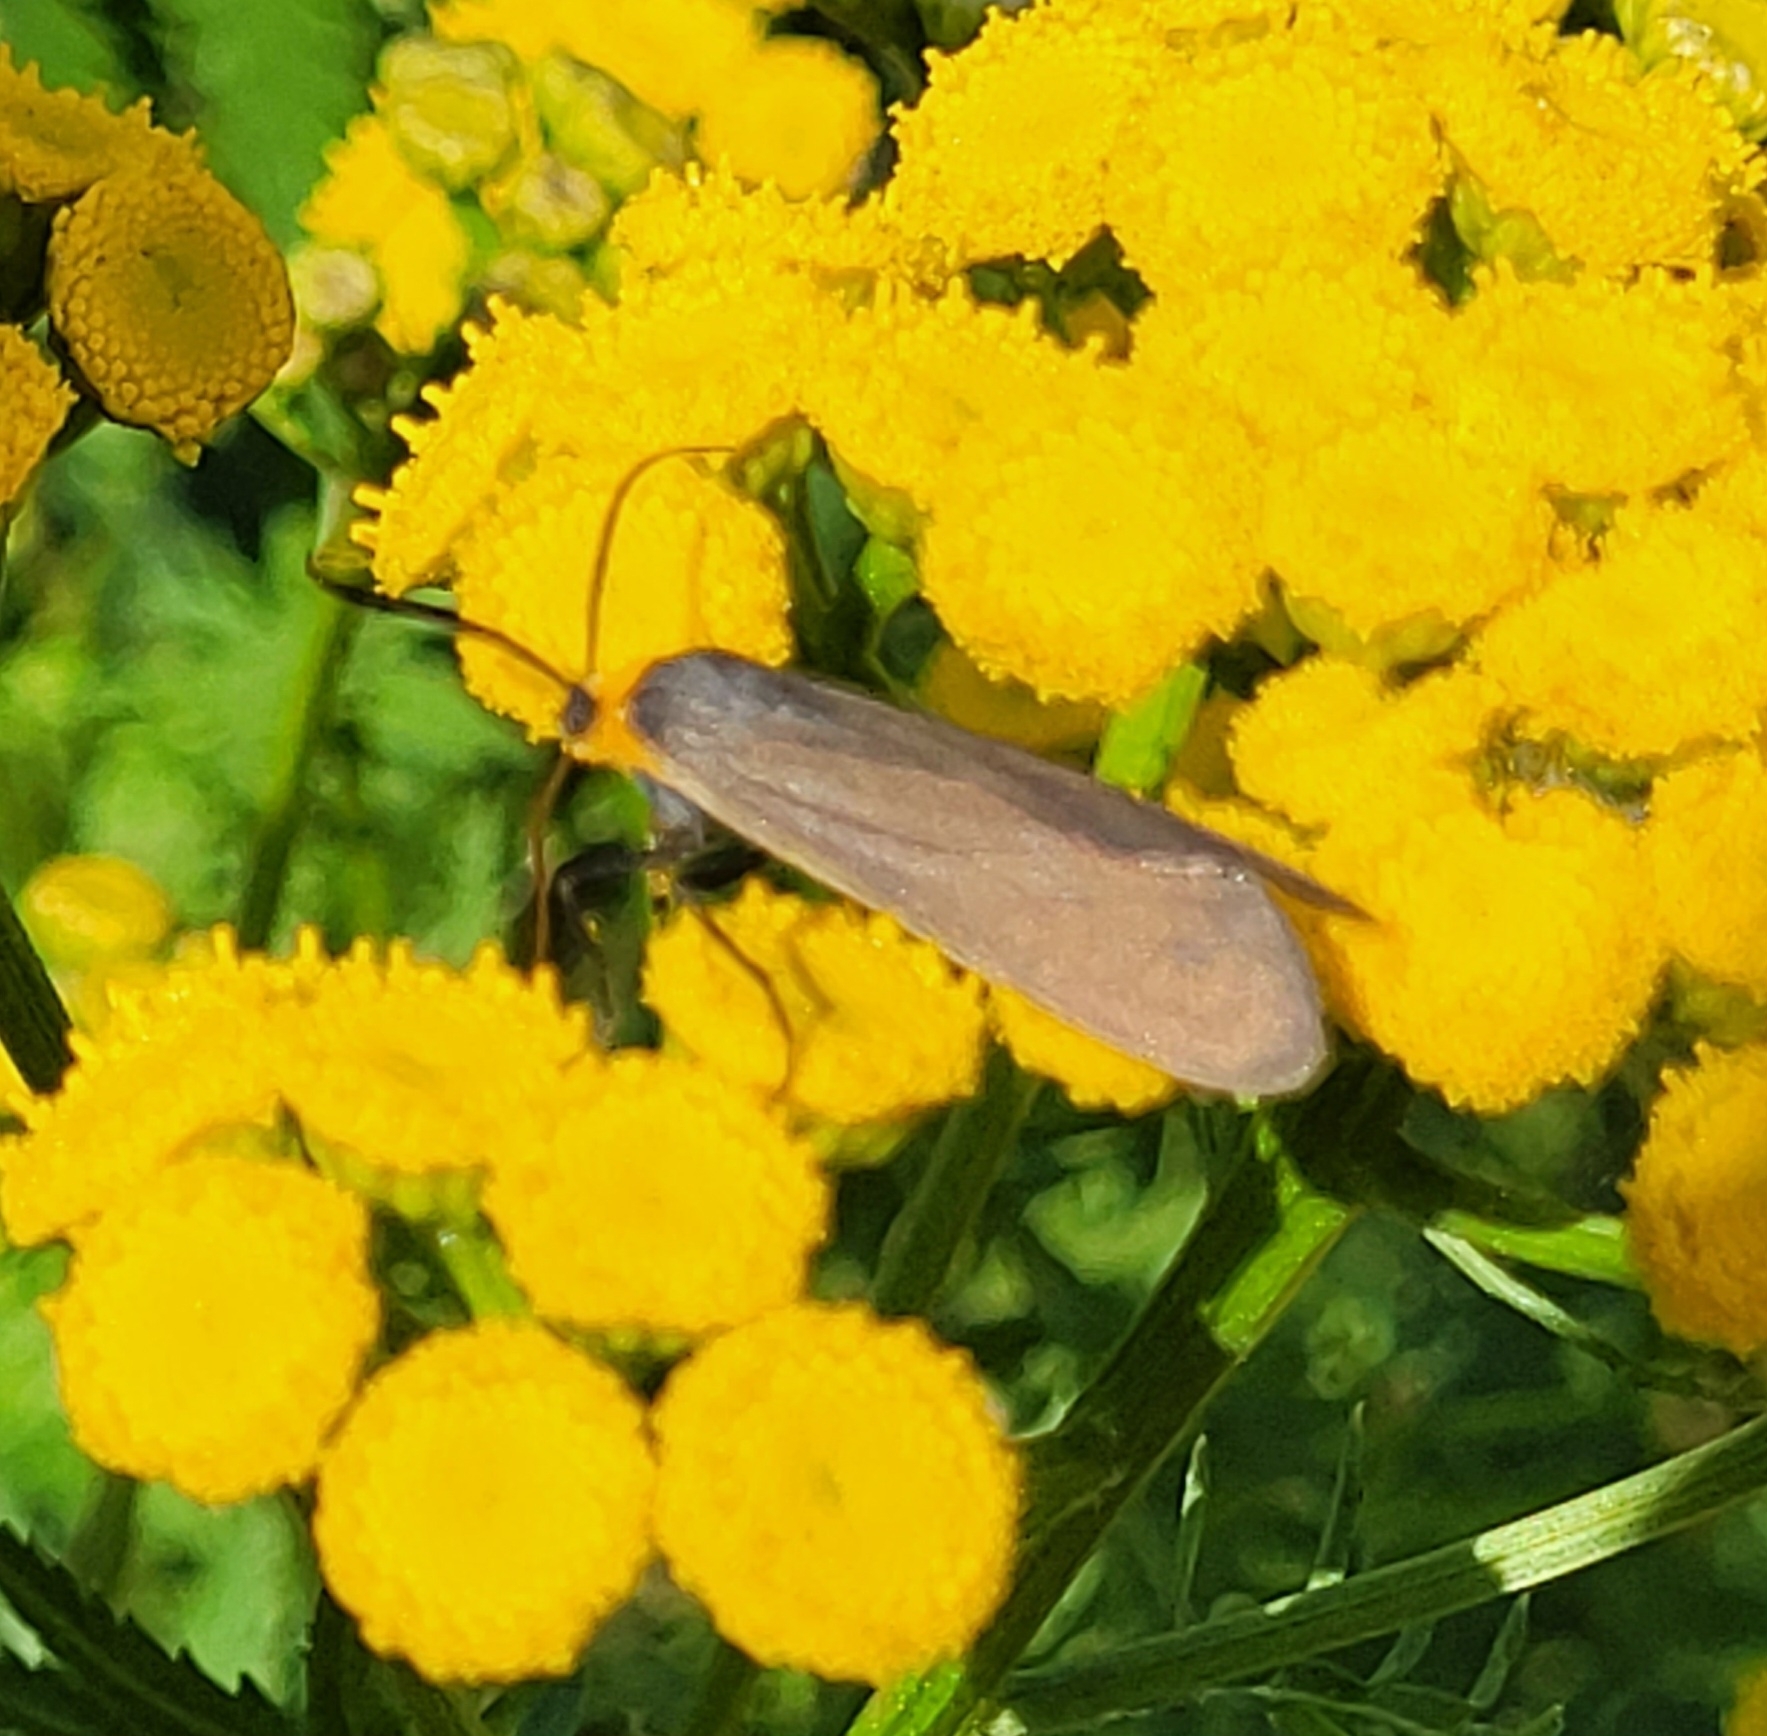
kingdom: Animalia
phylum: Arthropoda
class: Insecta
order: Lepidoptera
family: Erebidae
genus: Cisseps
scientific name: Cisseps fulvicollis
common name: Yellow-collared scape moth
